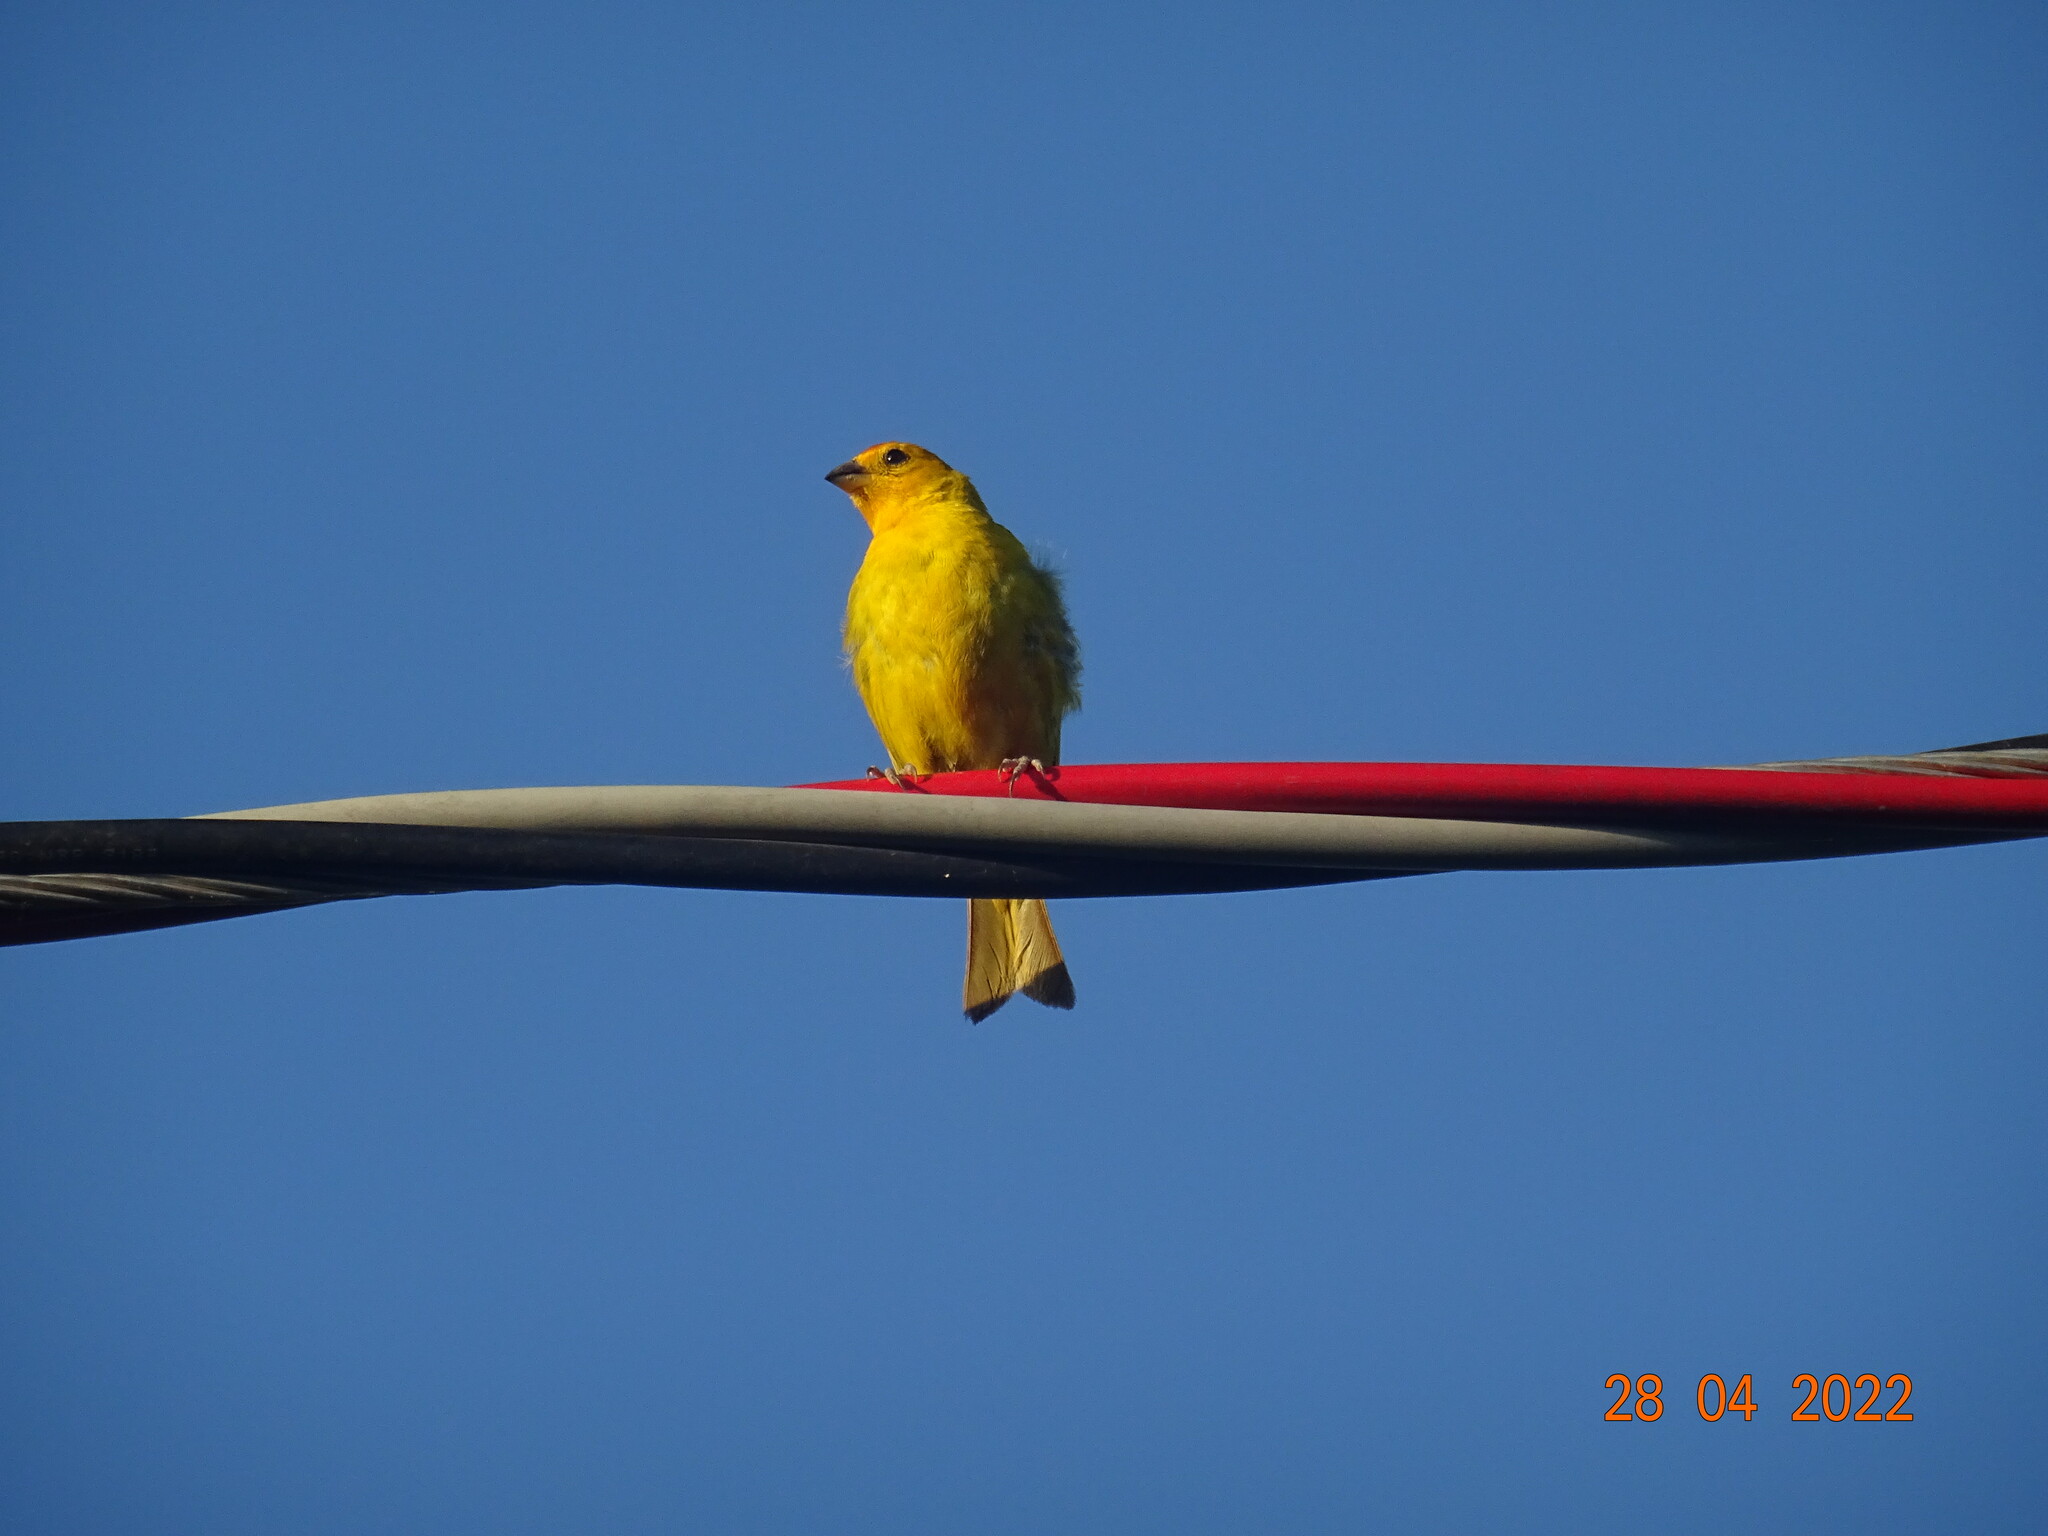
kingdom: Animalia
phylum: Chordata
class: Aves
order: Passeriformes
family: Thraupidae
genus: Sicalis
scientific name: Sicalis flaveola
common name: Saffron finch
